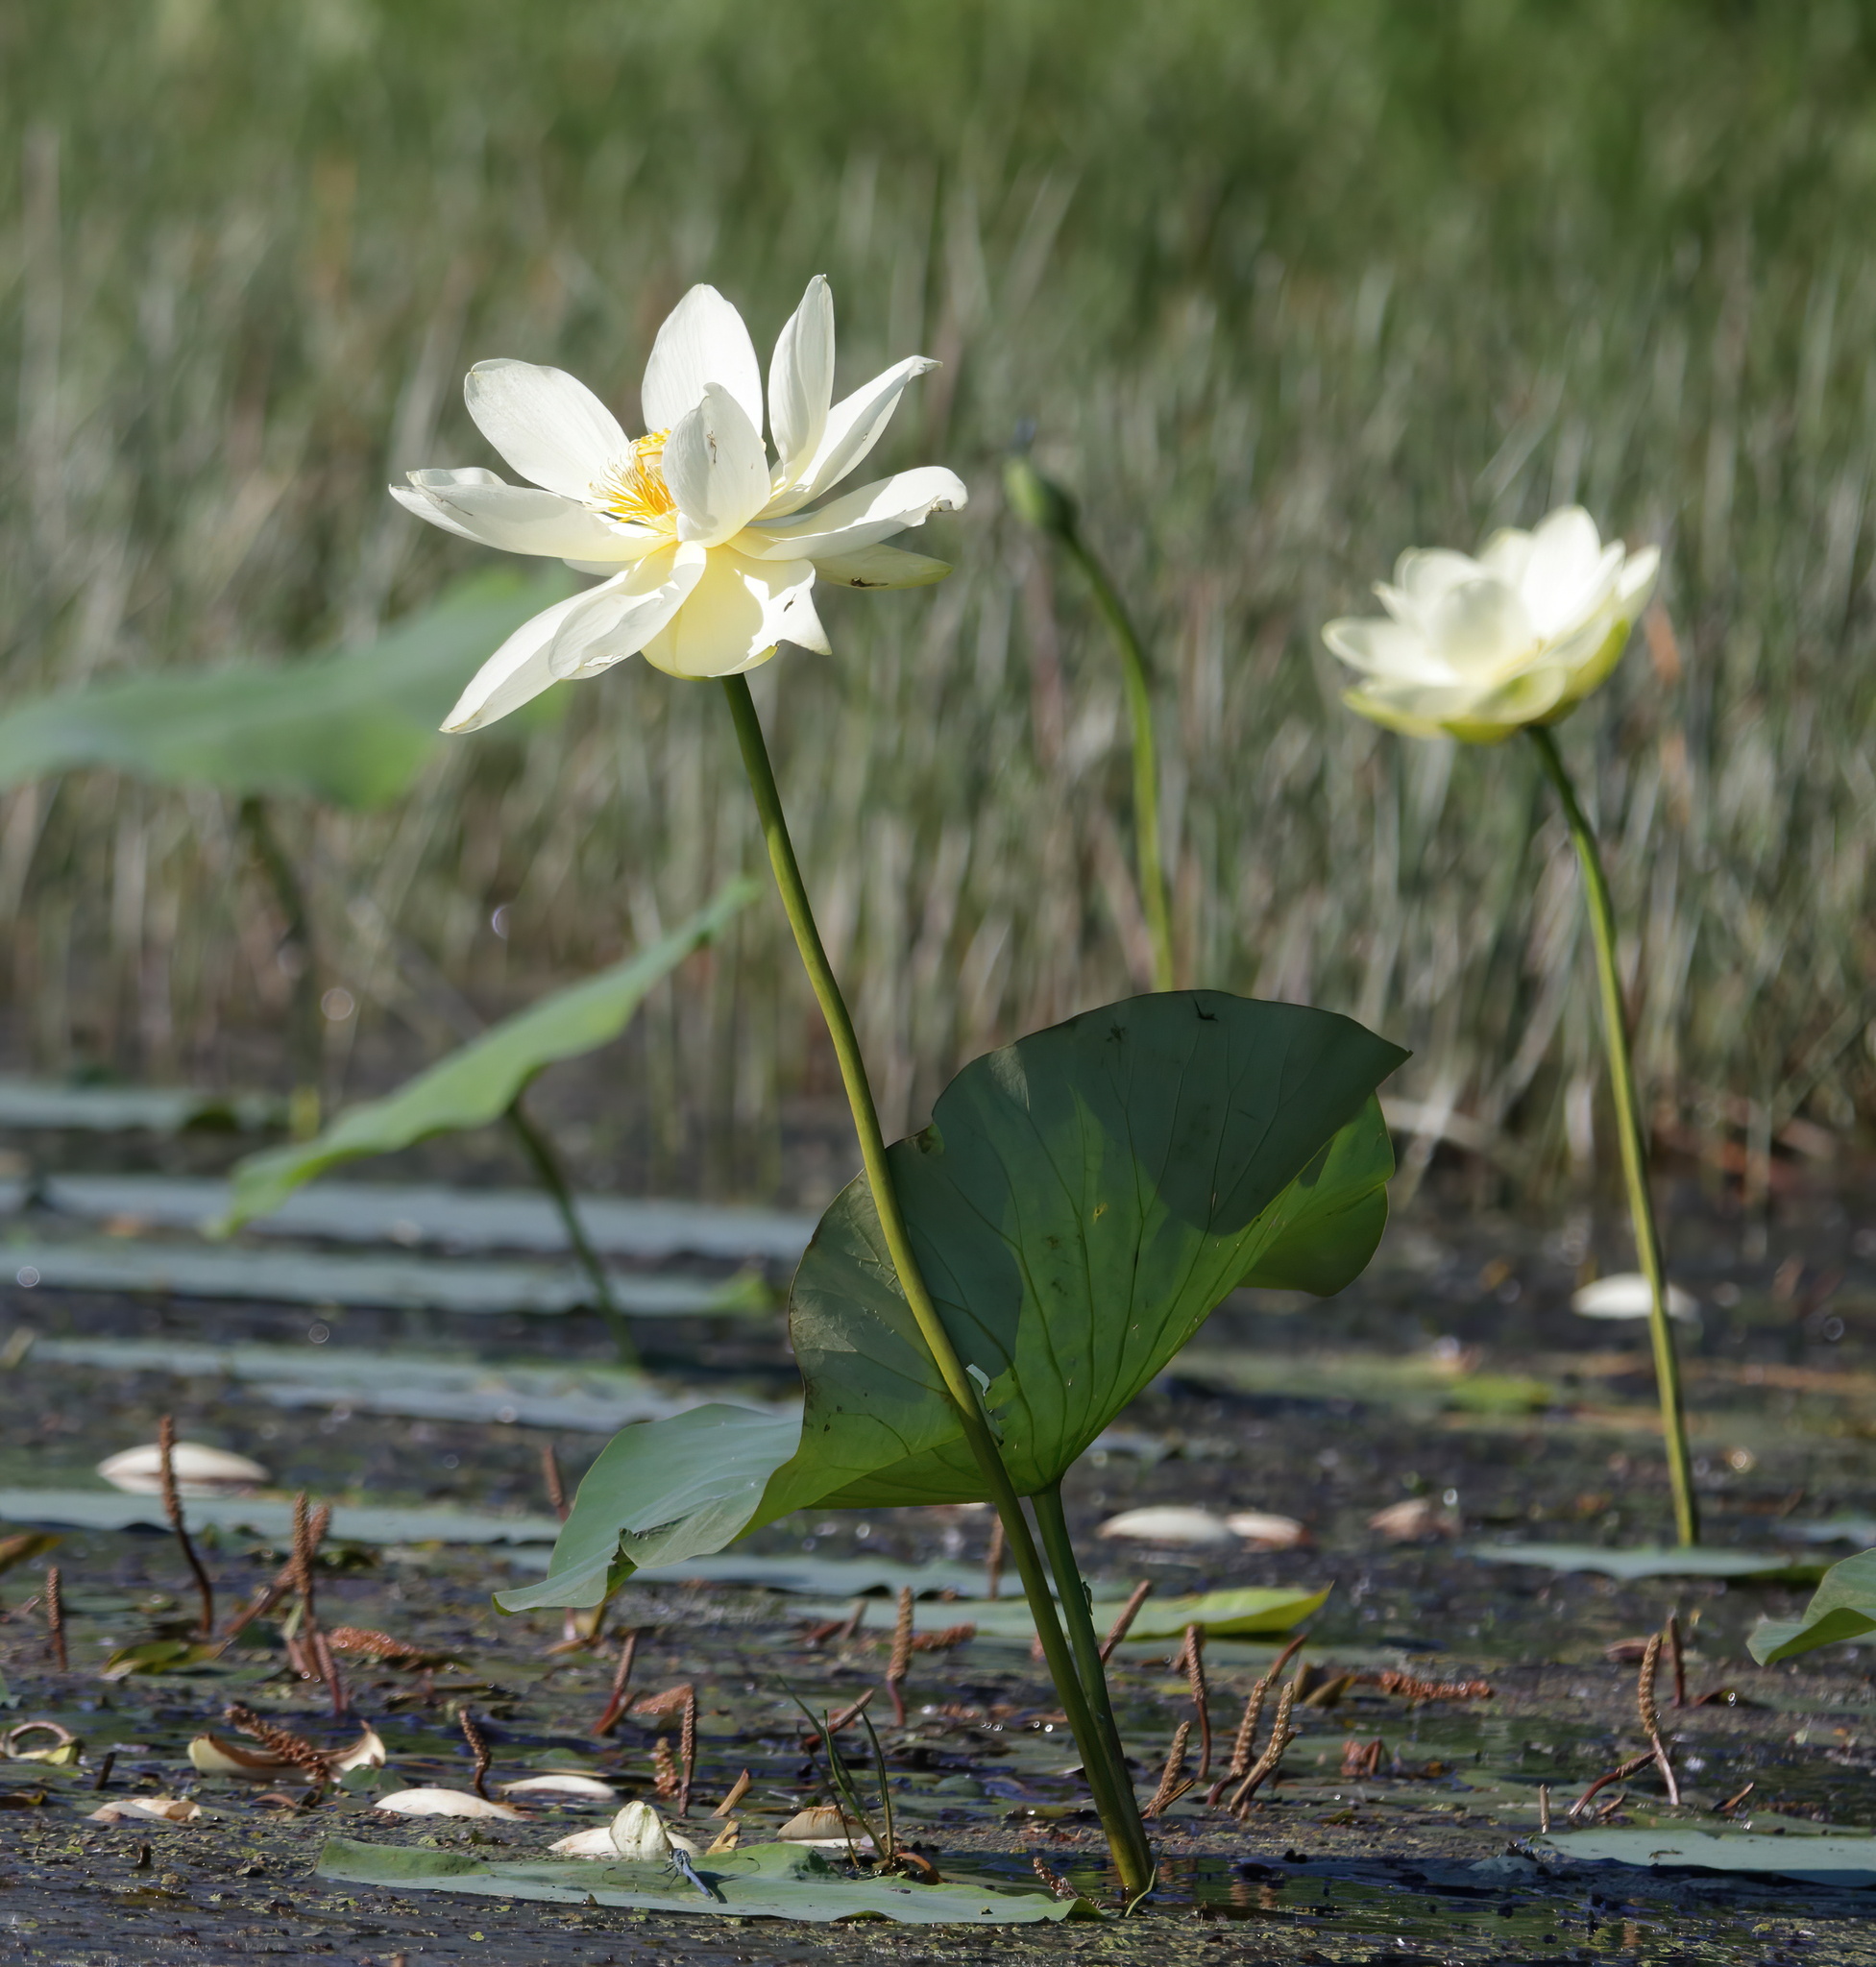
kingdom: Plantae
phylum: Tracheophyta
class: Magnoliopsida
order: Proteales
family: Nelumbonaceae
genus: Nelumbo
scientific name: Nelumbo lutea
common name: American lotus
